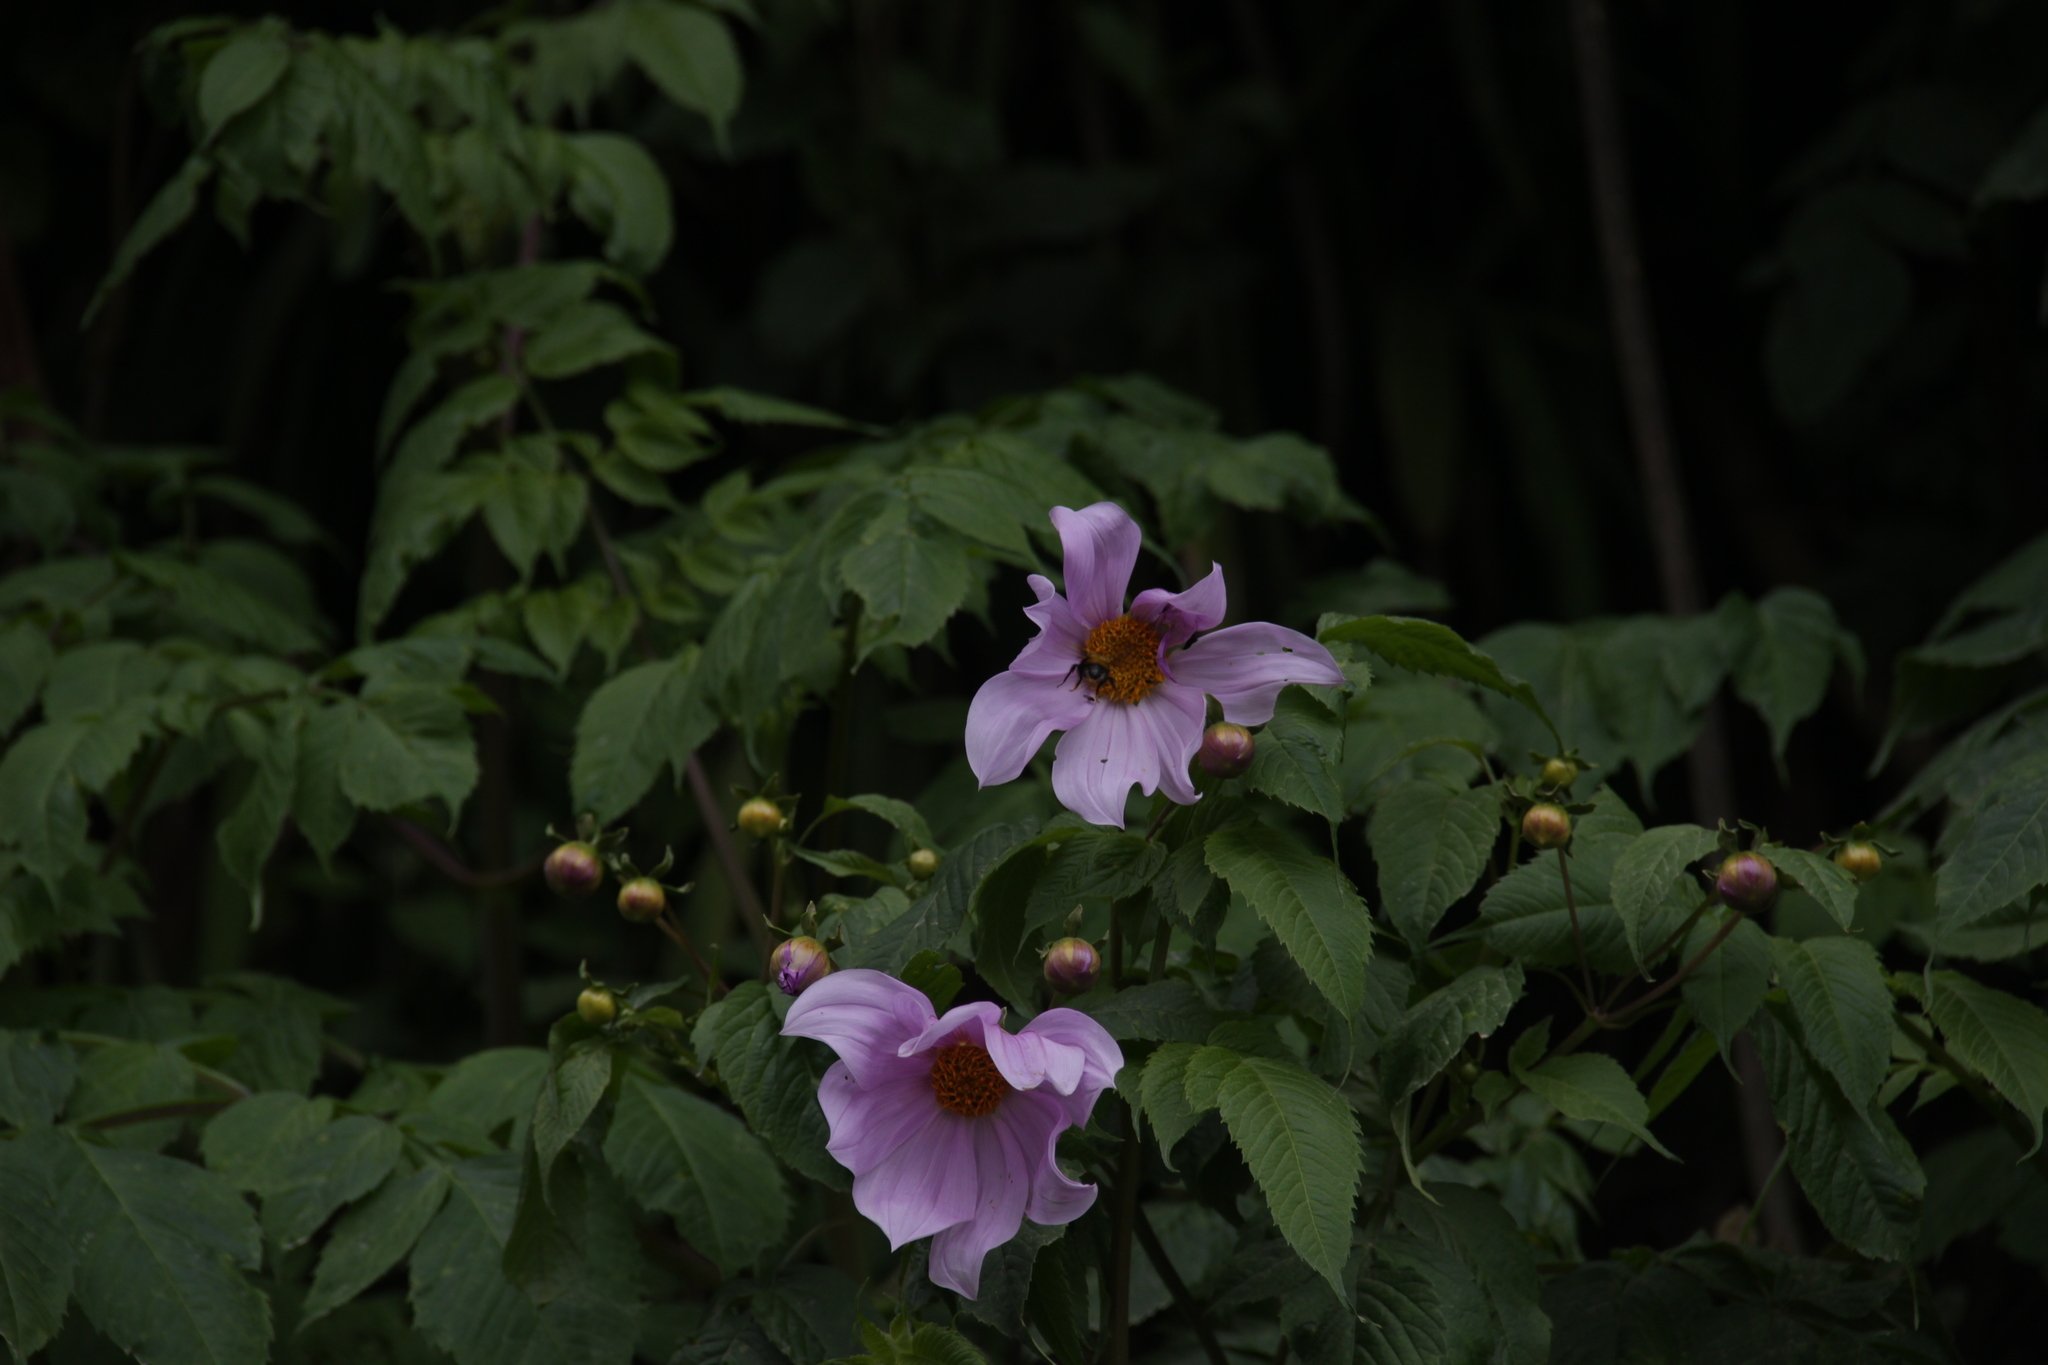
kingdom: Plantae
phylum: Tracheophyta
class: Magnoliopsida
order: Asterales
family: Asteraceae
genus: Dahlia
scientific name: Dahlia imperialis
